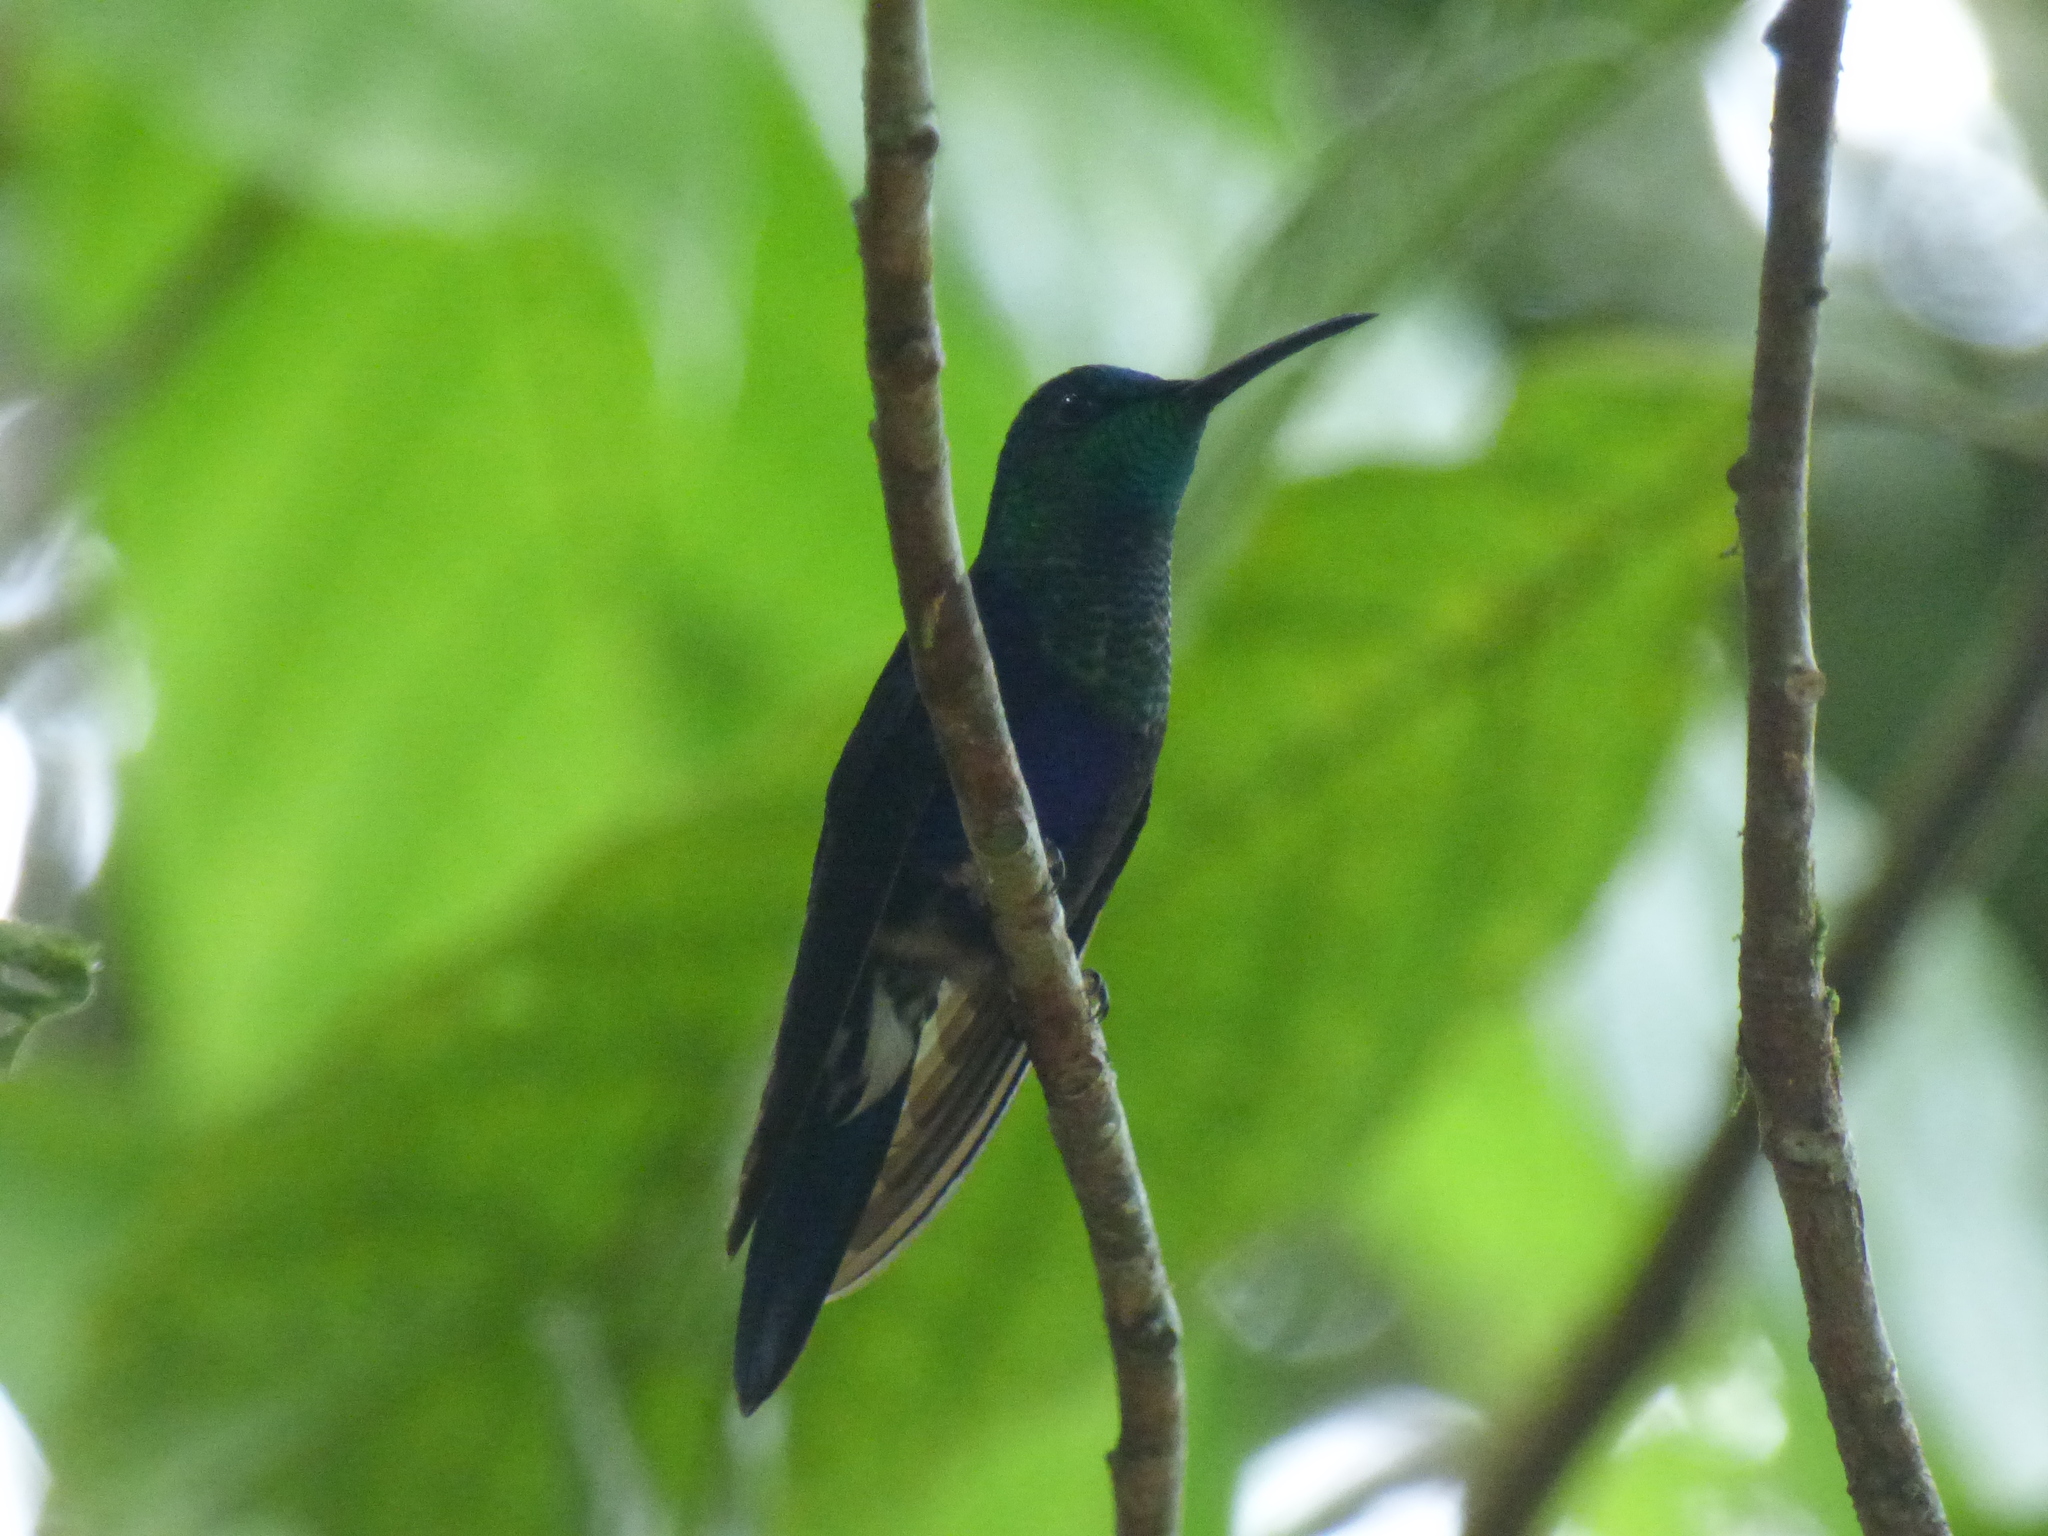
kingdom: Animalia
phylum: Chordata
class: Aves
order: Apodiformes
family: Trochilidae
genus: Thalurania
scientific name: Thalurania colombica
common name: Crowned woodnymph
